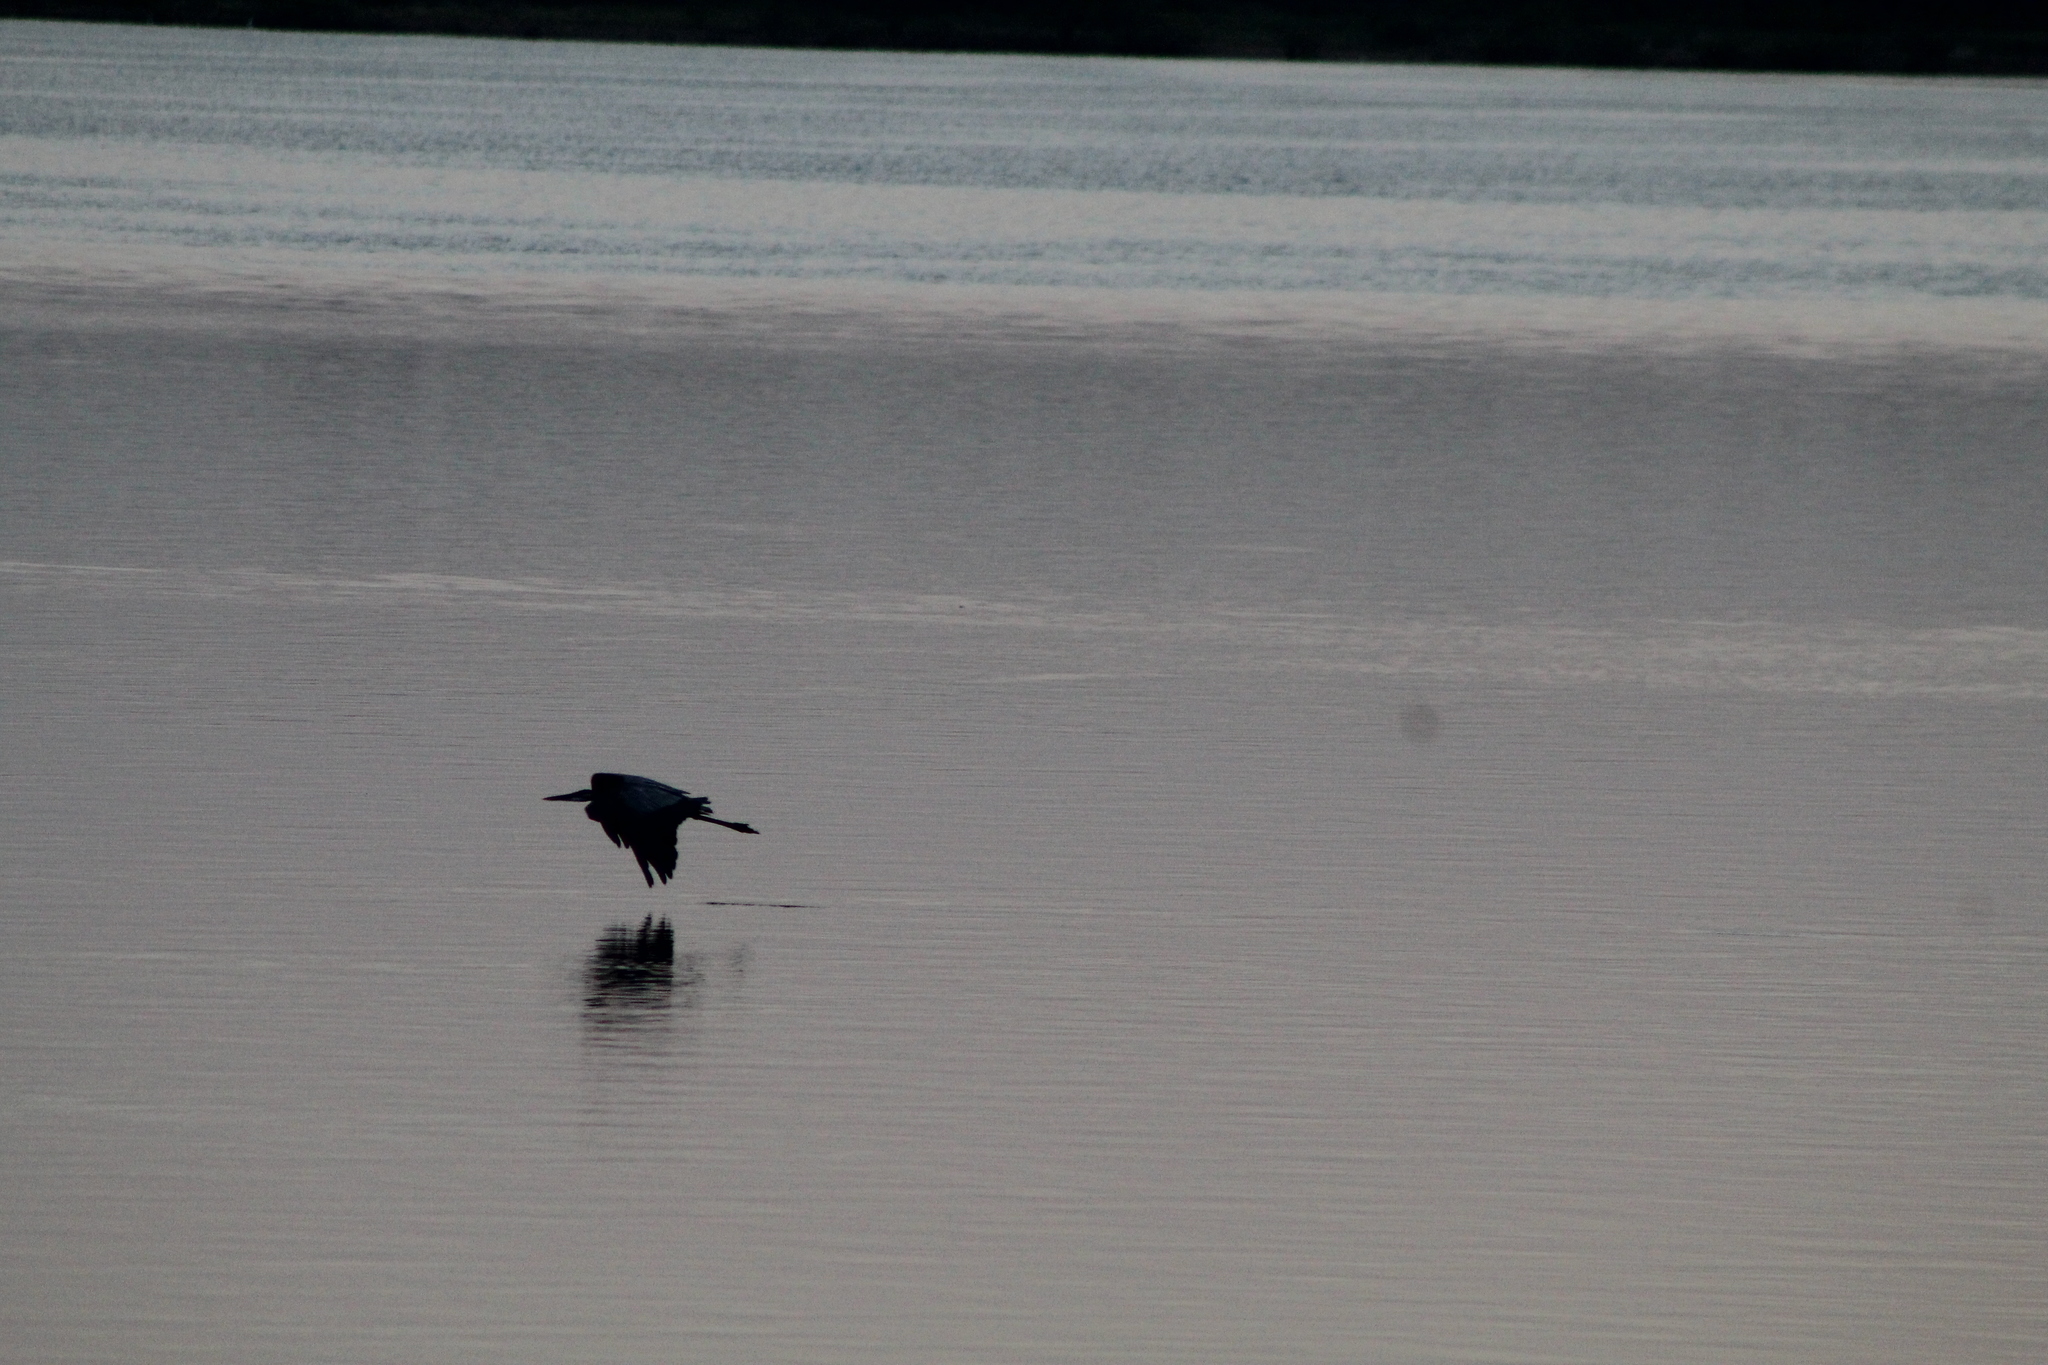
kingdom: Animalia
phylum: Chordata
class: Aves
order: Pelecaniformes
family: Ardeidae
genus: Ardea
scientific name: Ardea herodias
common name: Great blue heron
